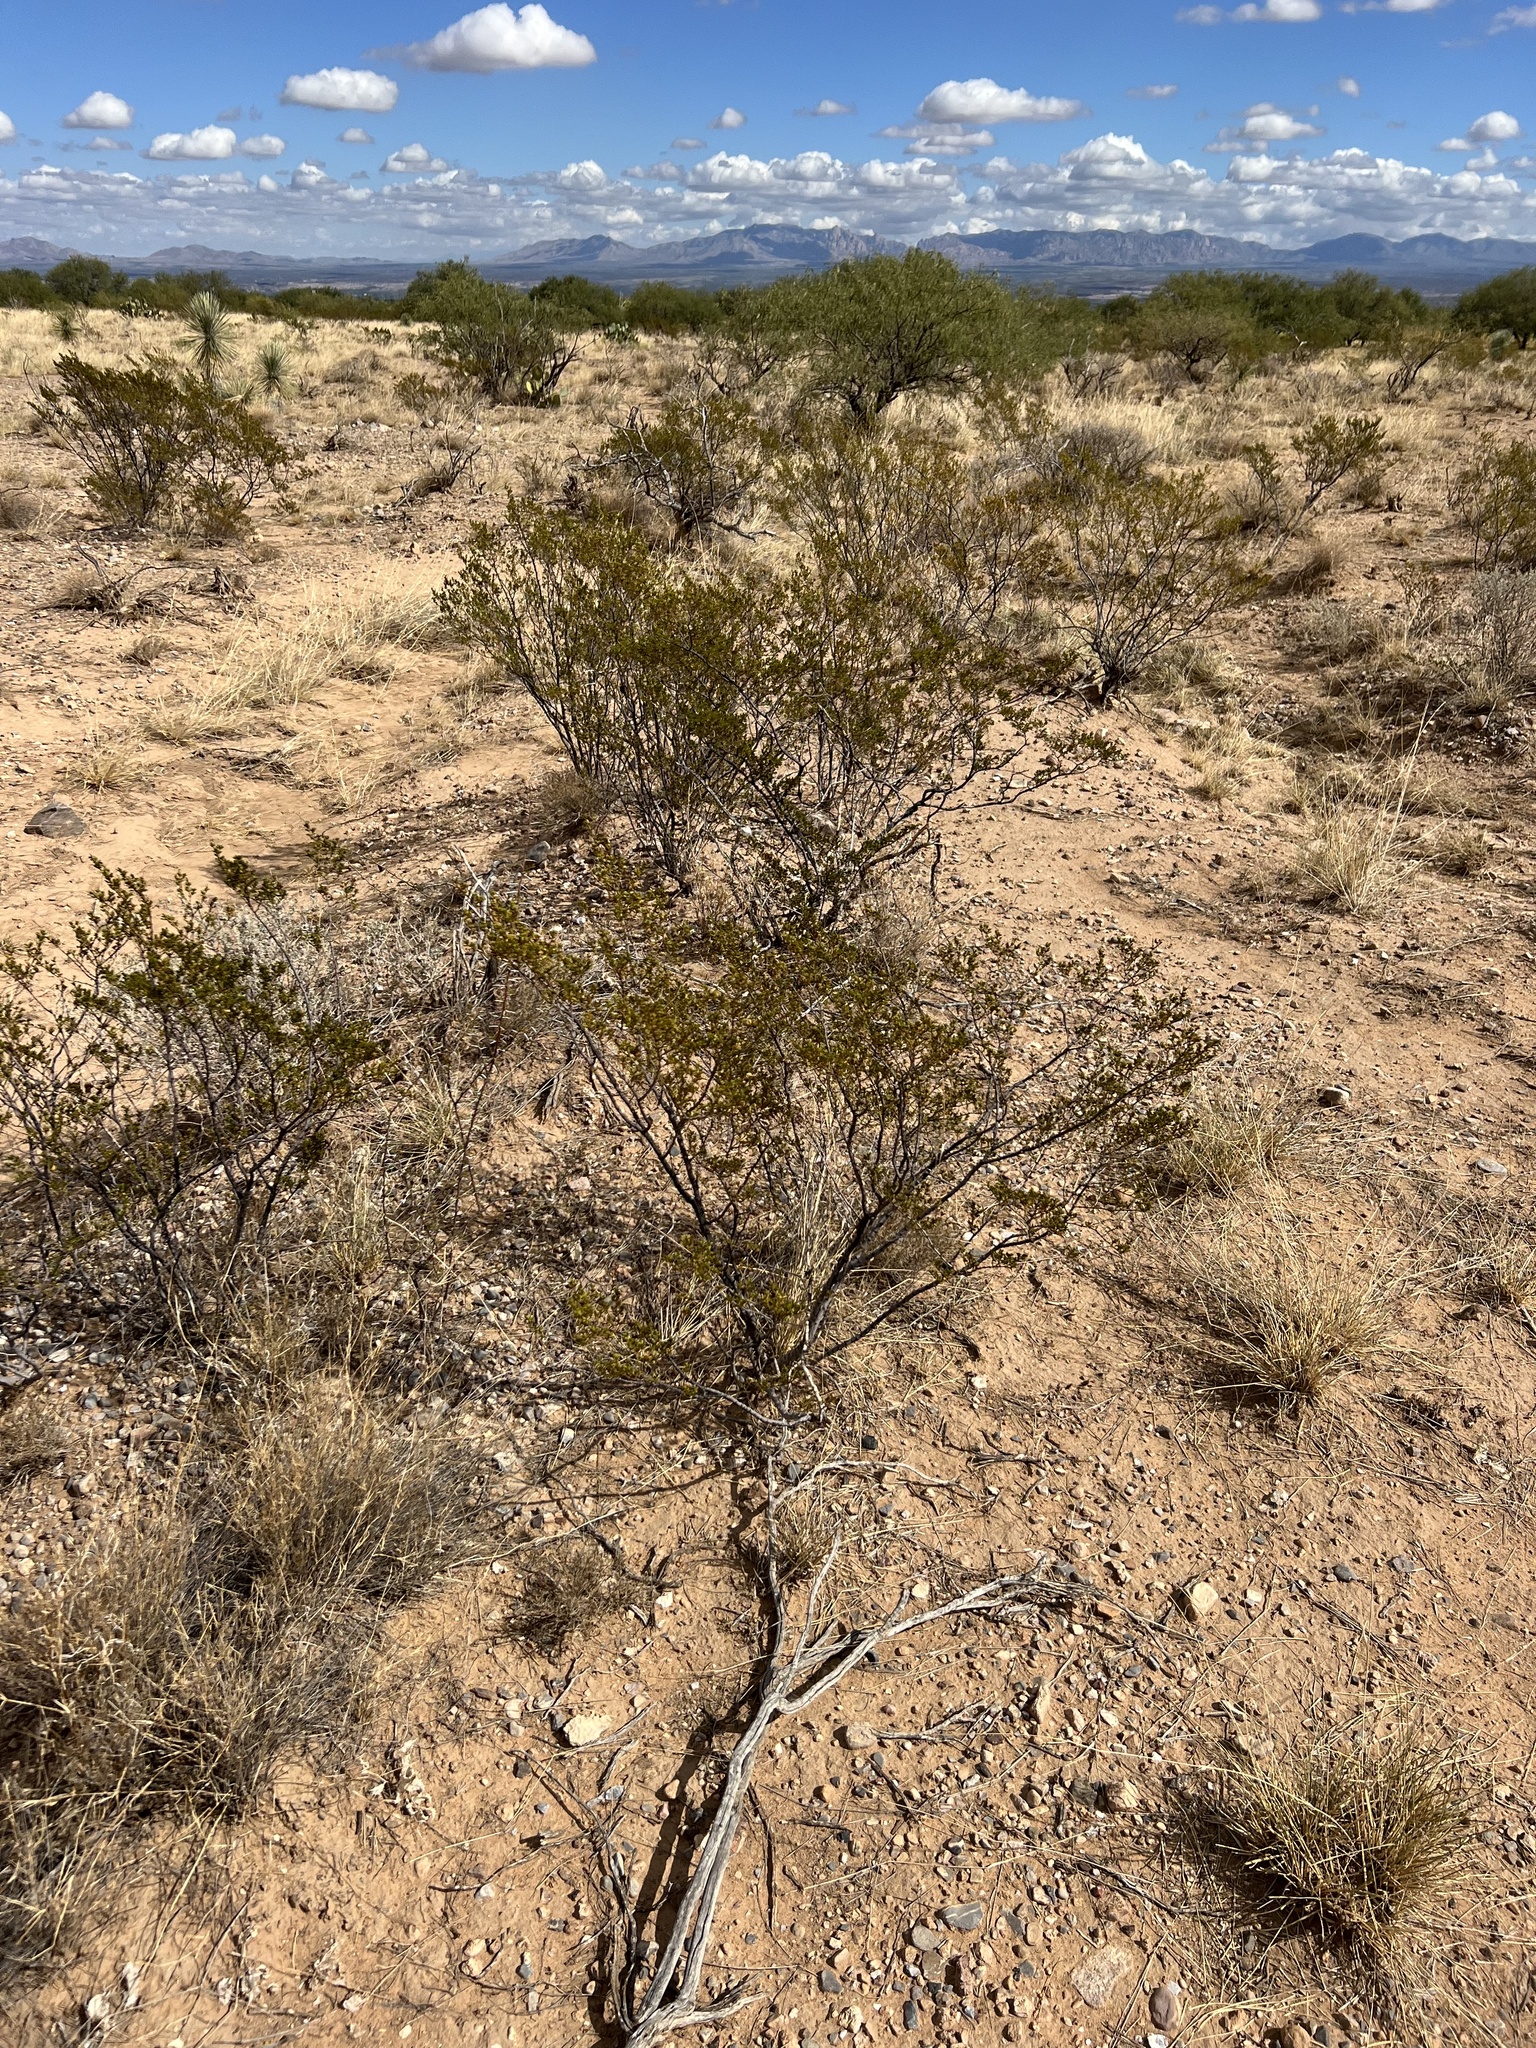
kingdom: Plantae
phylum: Tracheophyta
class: Magnoliopsida
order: Zygophyllales
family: Zygophyllaceae
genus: Larrea
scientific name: Larrea tridentata
